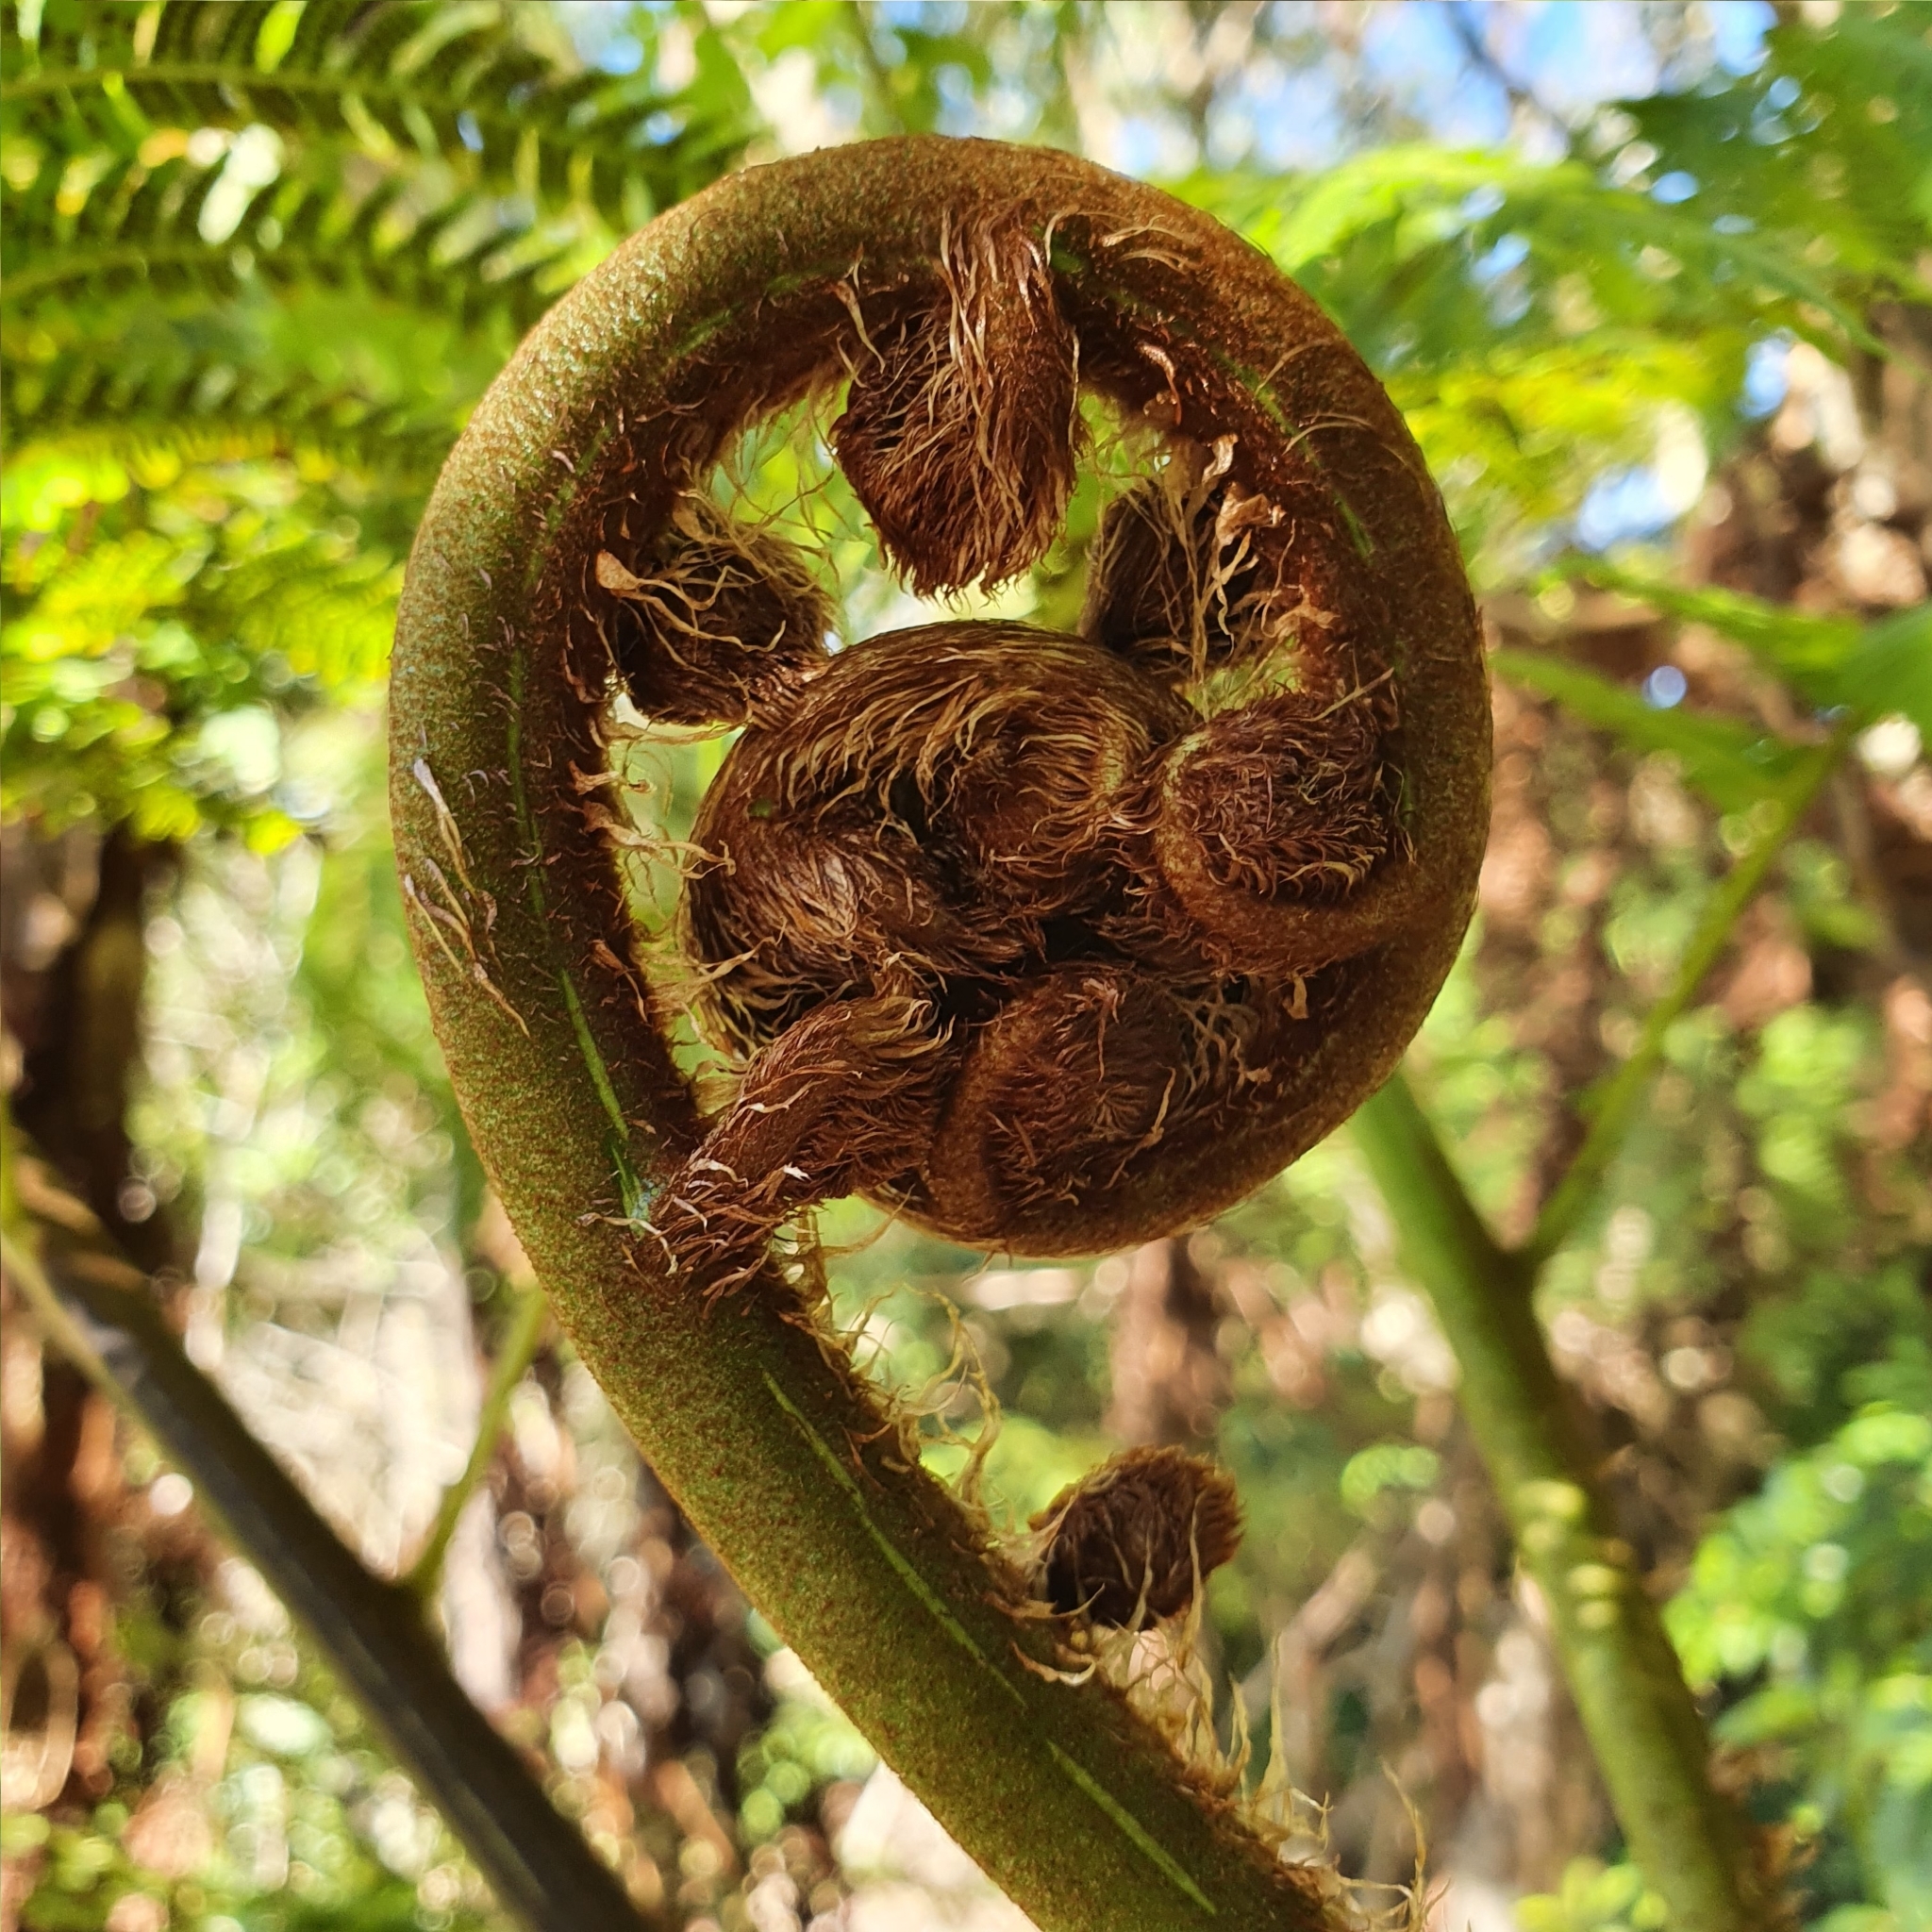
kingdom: Plantae
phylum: Tracheophyta
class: Polypodiopsida
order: Cyatheales
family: Cyatheaceae
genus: Sphaeropteris
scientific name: Sphaeropteris cooperi
